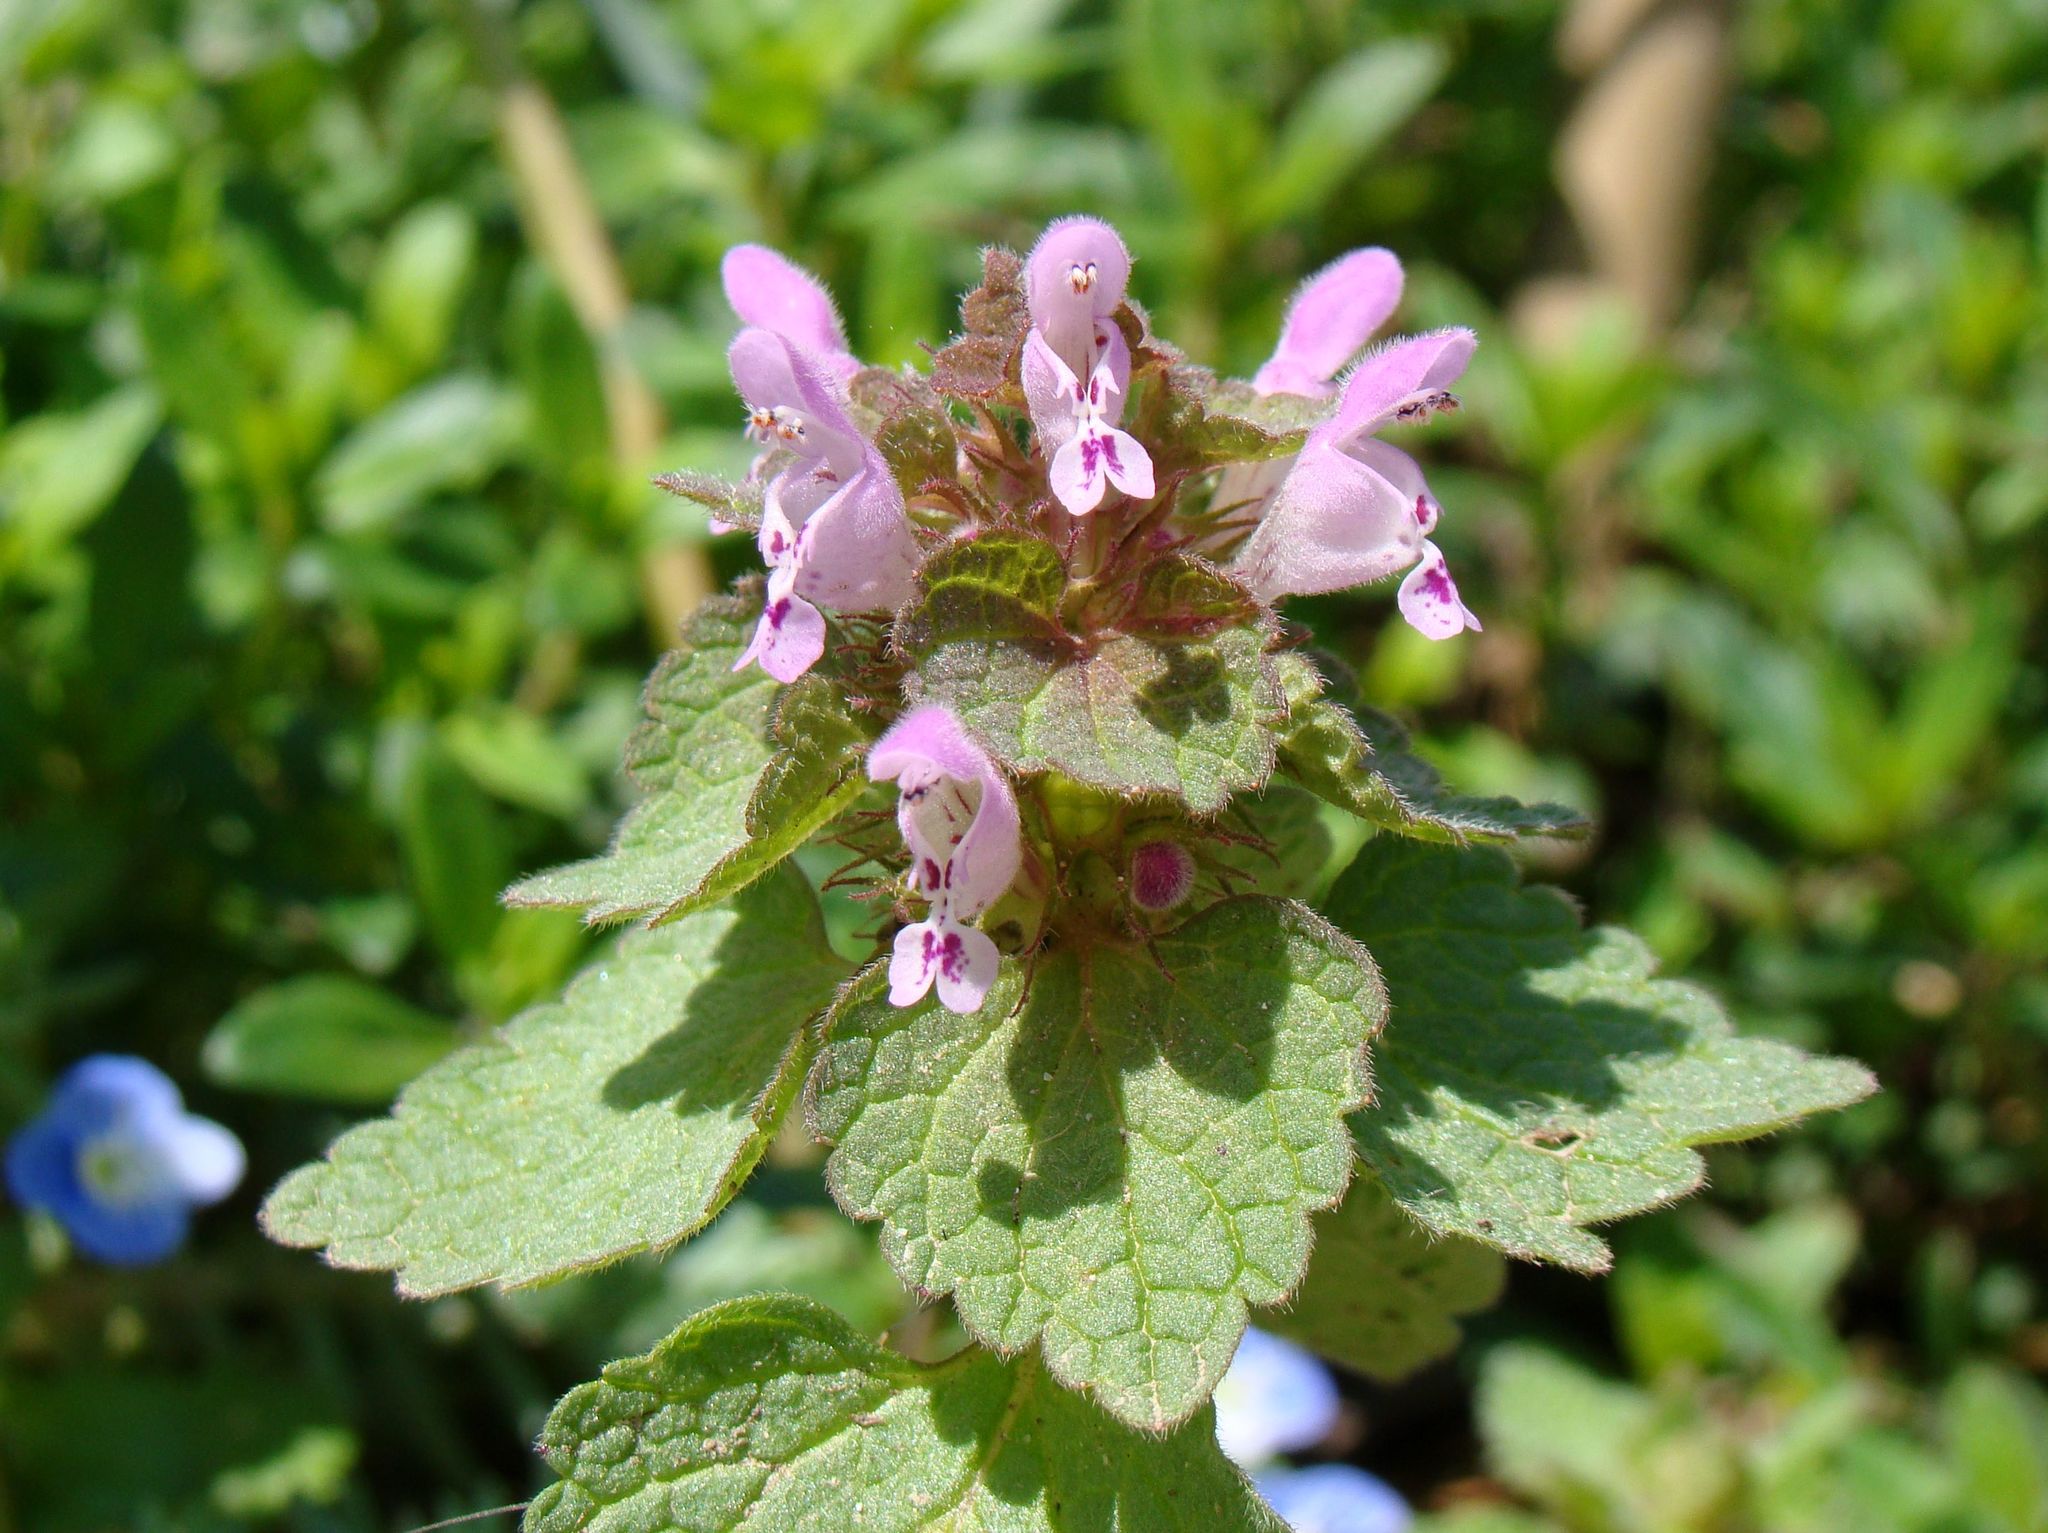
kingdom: Plantae
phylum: Tracheophyta
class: Magnoliopsida
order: Lamiales
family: Lamiaceae
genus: Lamium
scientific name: Lamium purpureum
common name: Red dead-nettle
